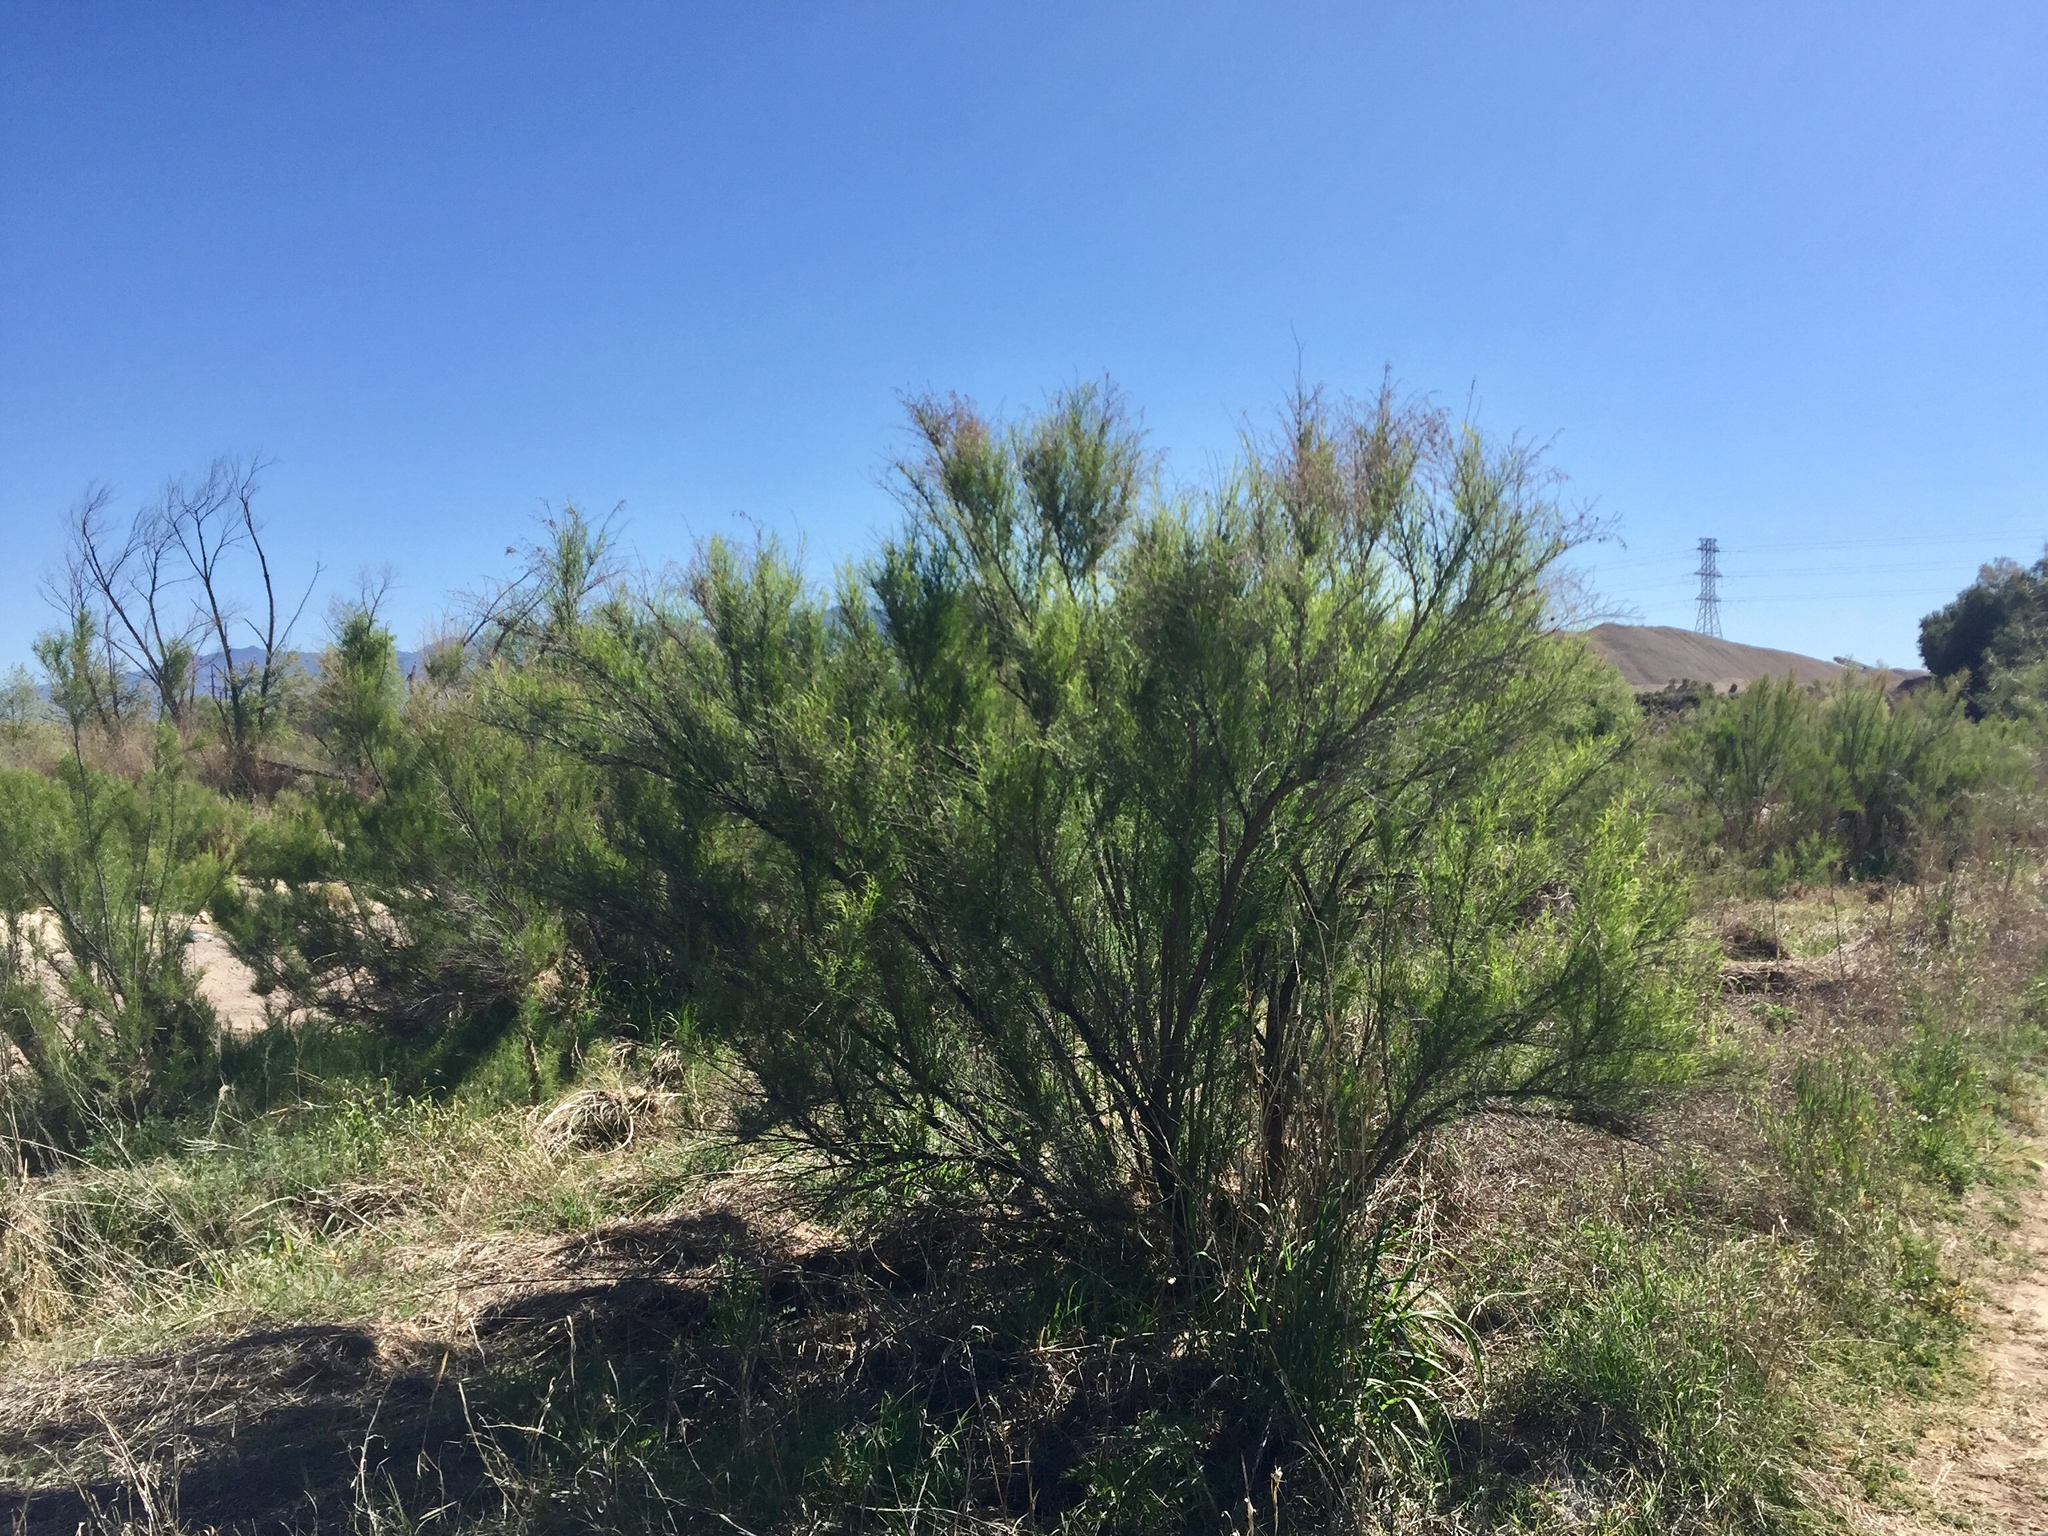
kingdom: Plantae
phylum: Tracheophyta
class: Magnoliopsida
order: Asterales
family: Asteraceae
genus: Baccharis
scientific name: Baccharis sarothroides
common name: Desert-broom
